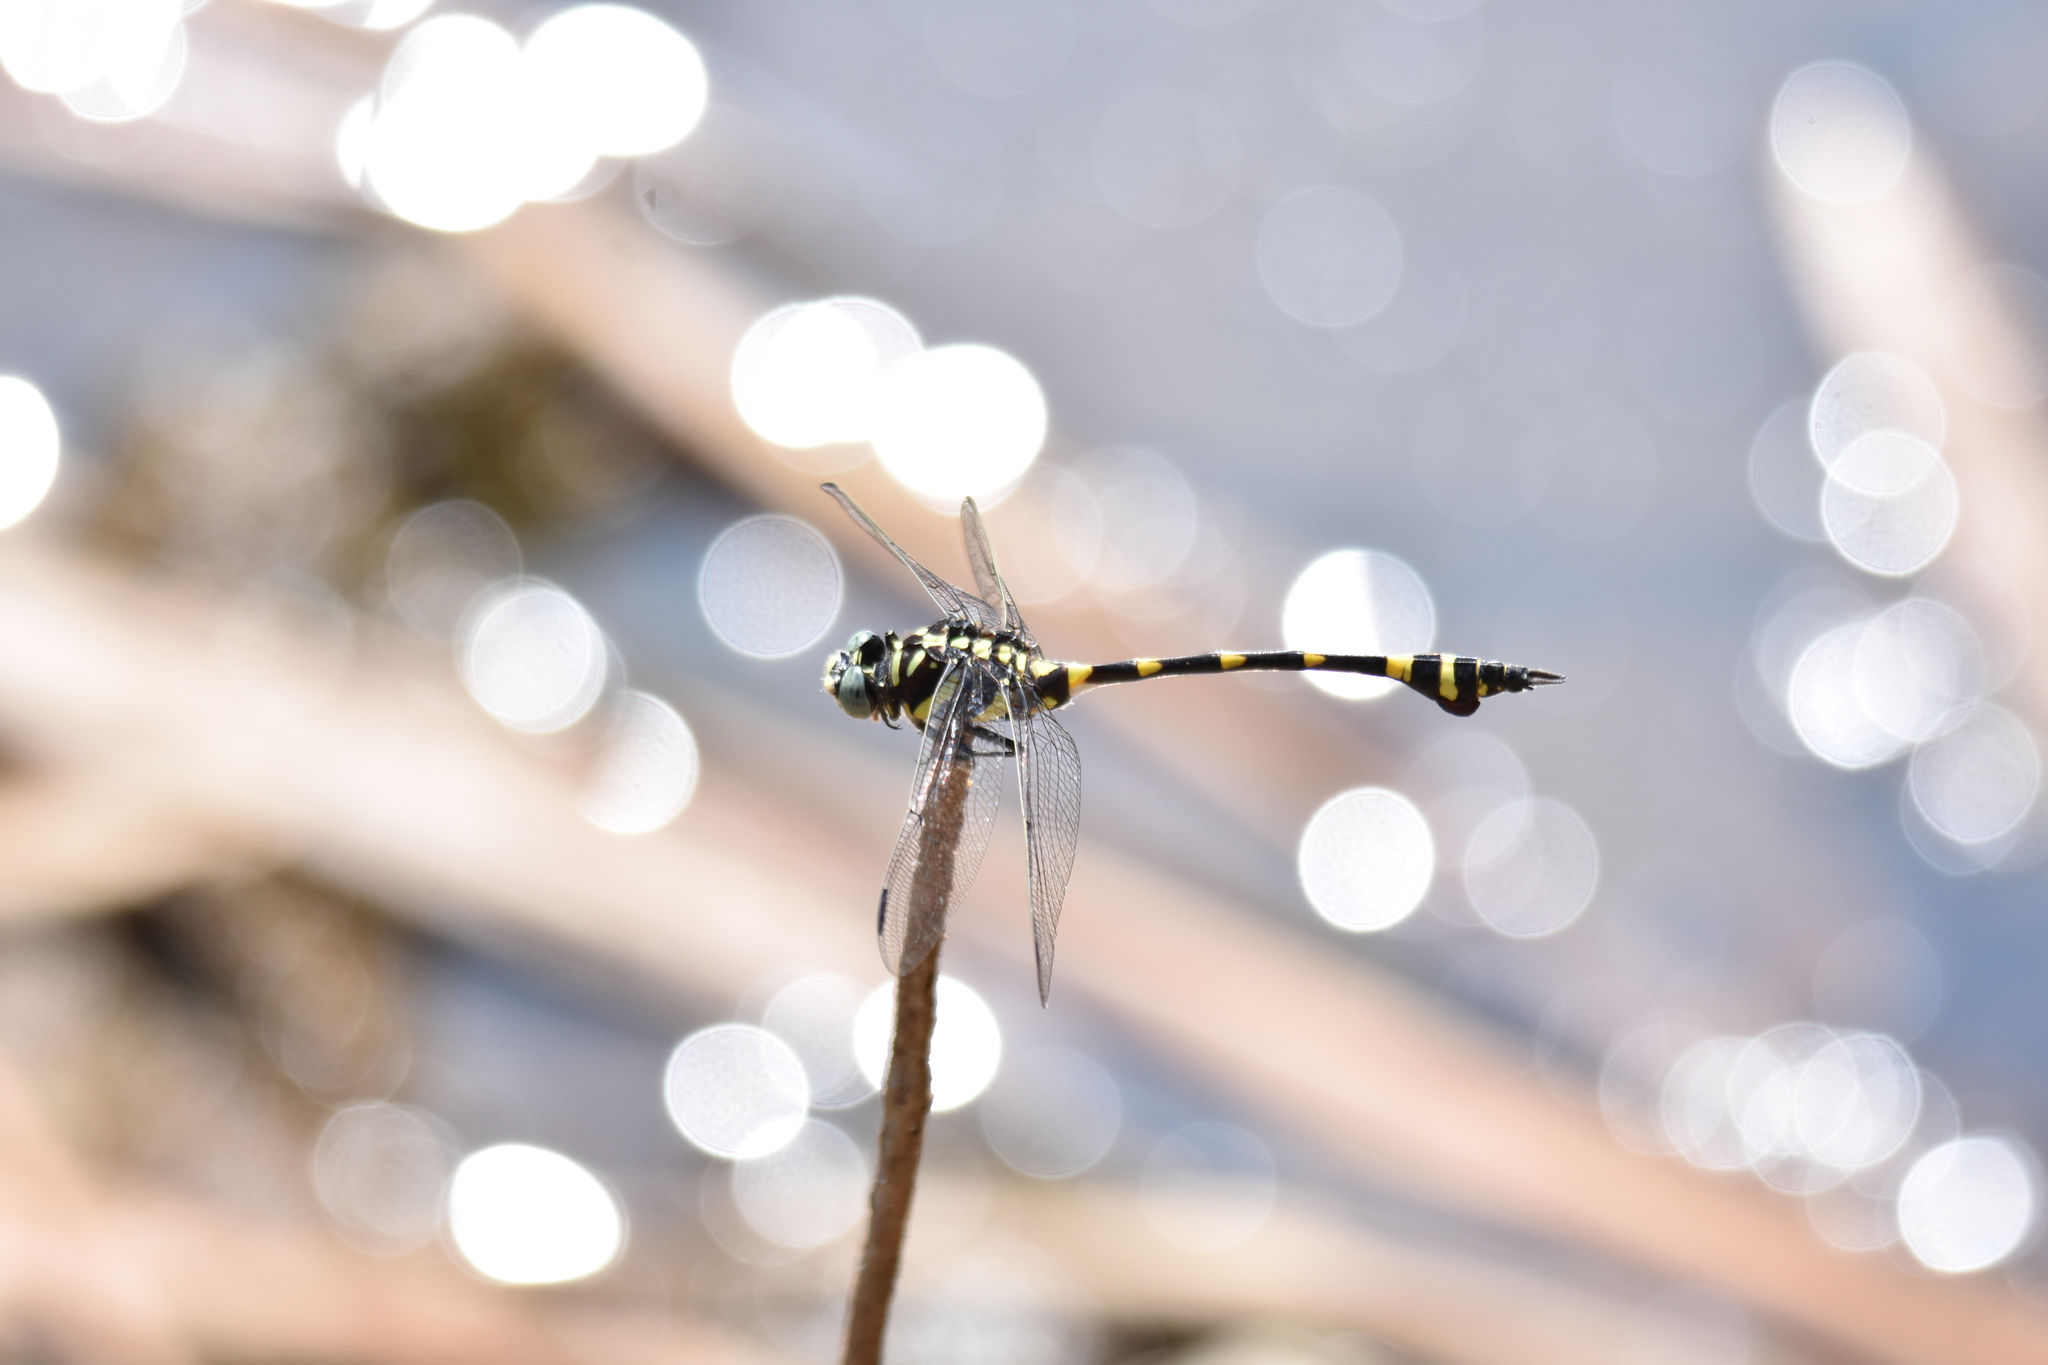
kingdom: Animalia
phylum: Arthropoda
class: Insecta
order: Odonata
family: Gomphidae
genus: Ictinogomphus
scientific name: Ictinogomphus rapax
